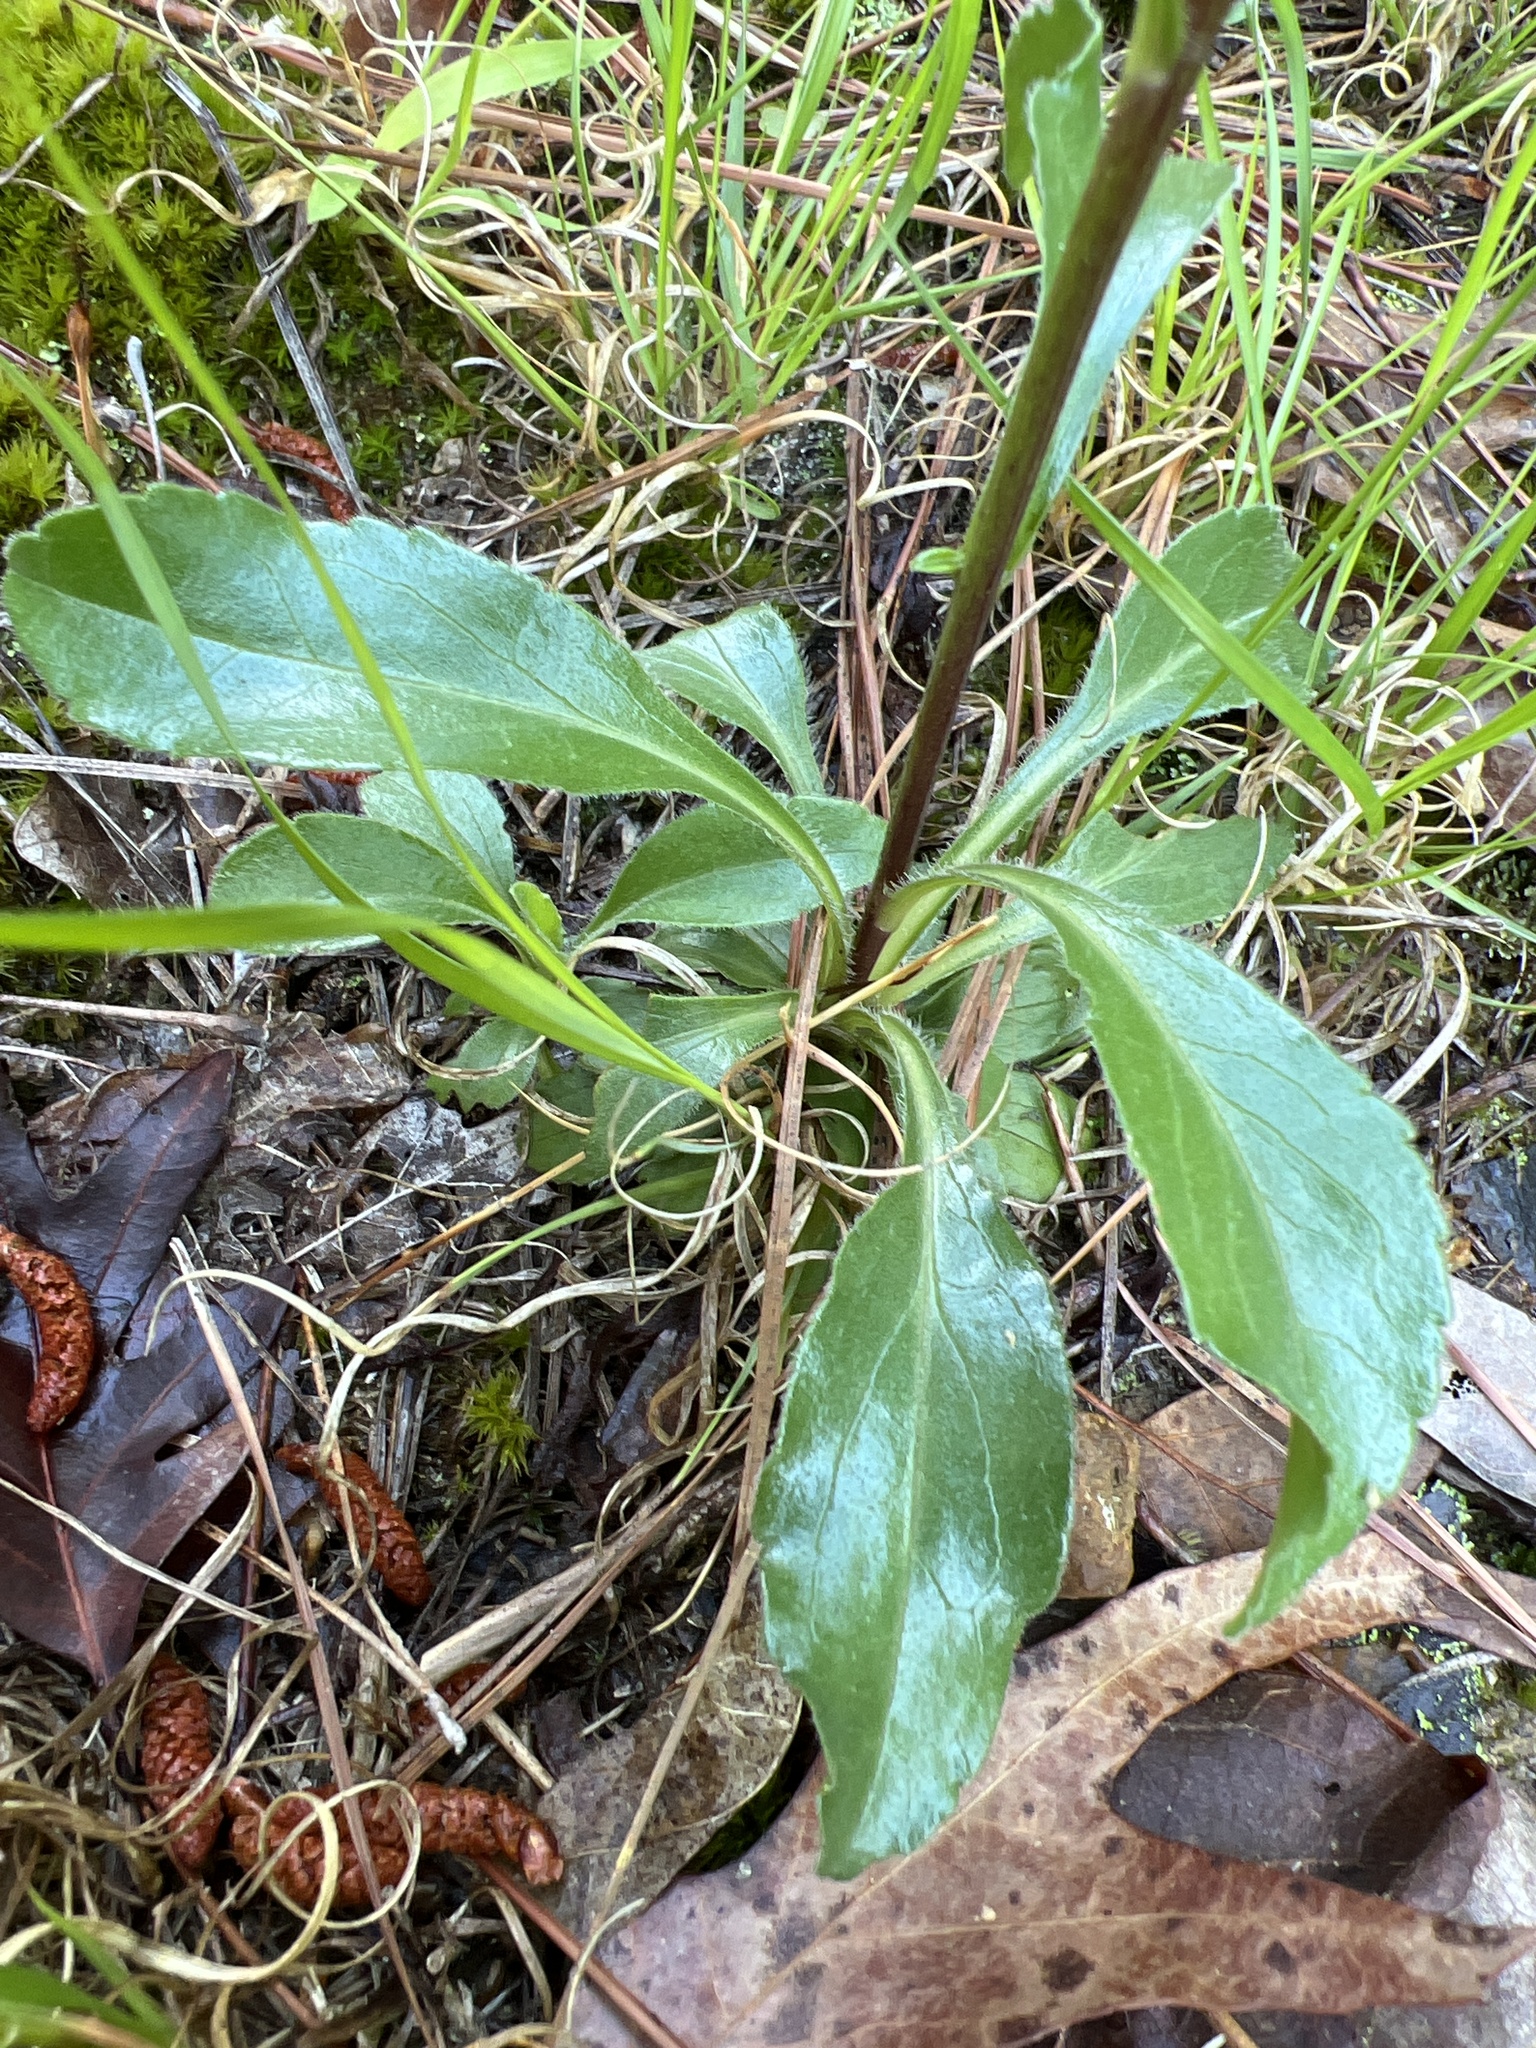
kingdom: Plantae
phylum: Tracheophyta
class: Magnoliopsida
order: Asterales
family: Asteraceae
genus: Sericocarpus
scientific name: Sericocarpus asteroides
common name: Toothed white-top aster
